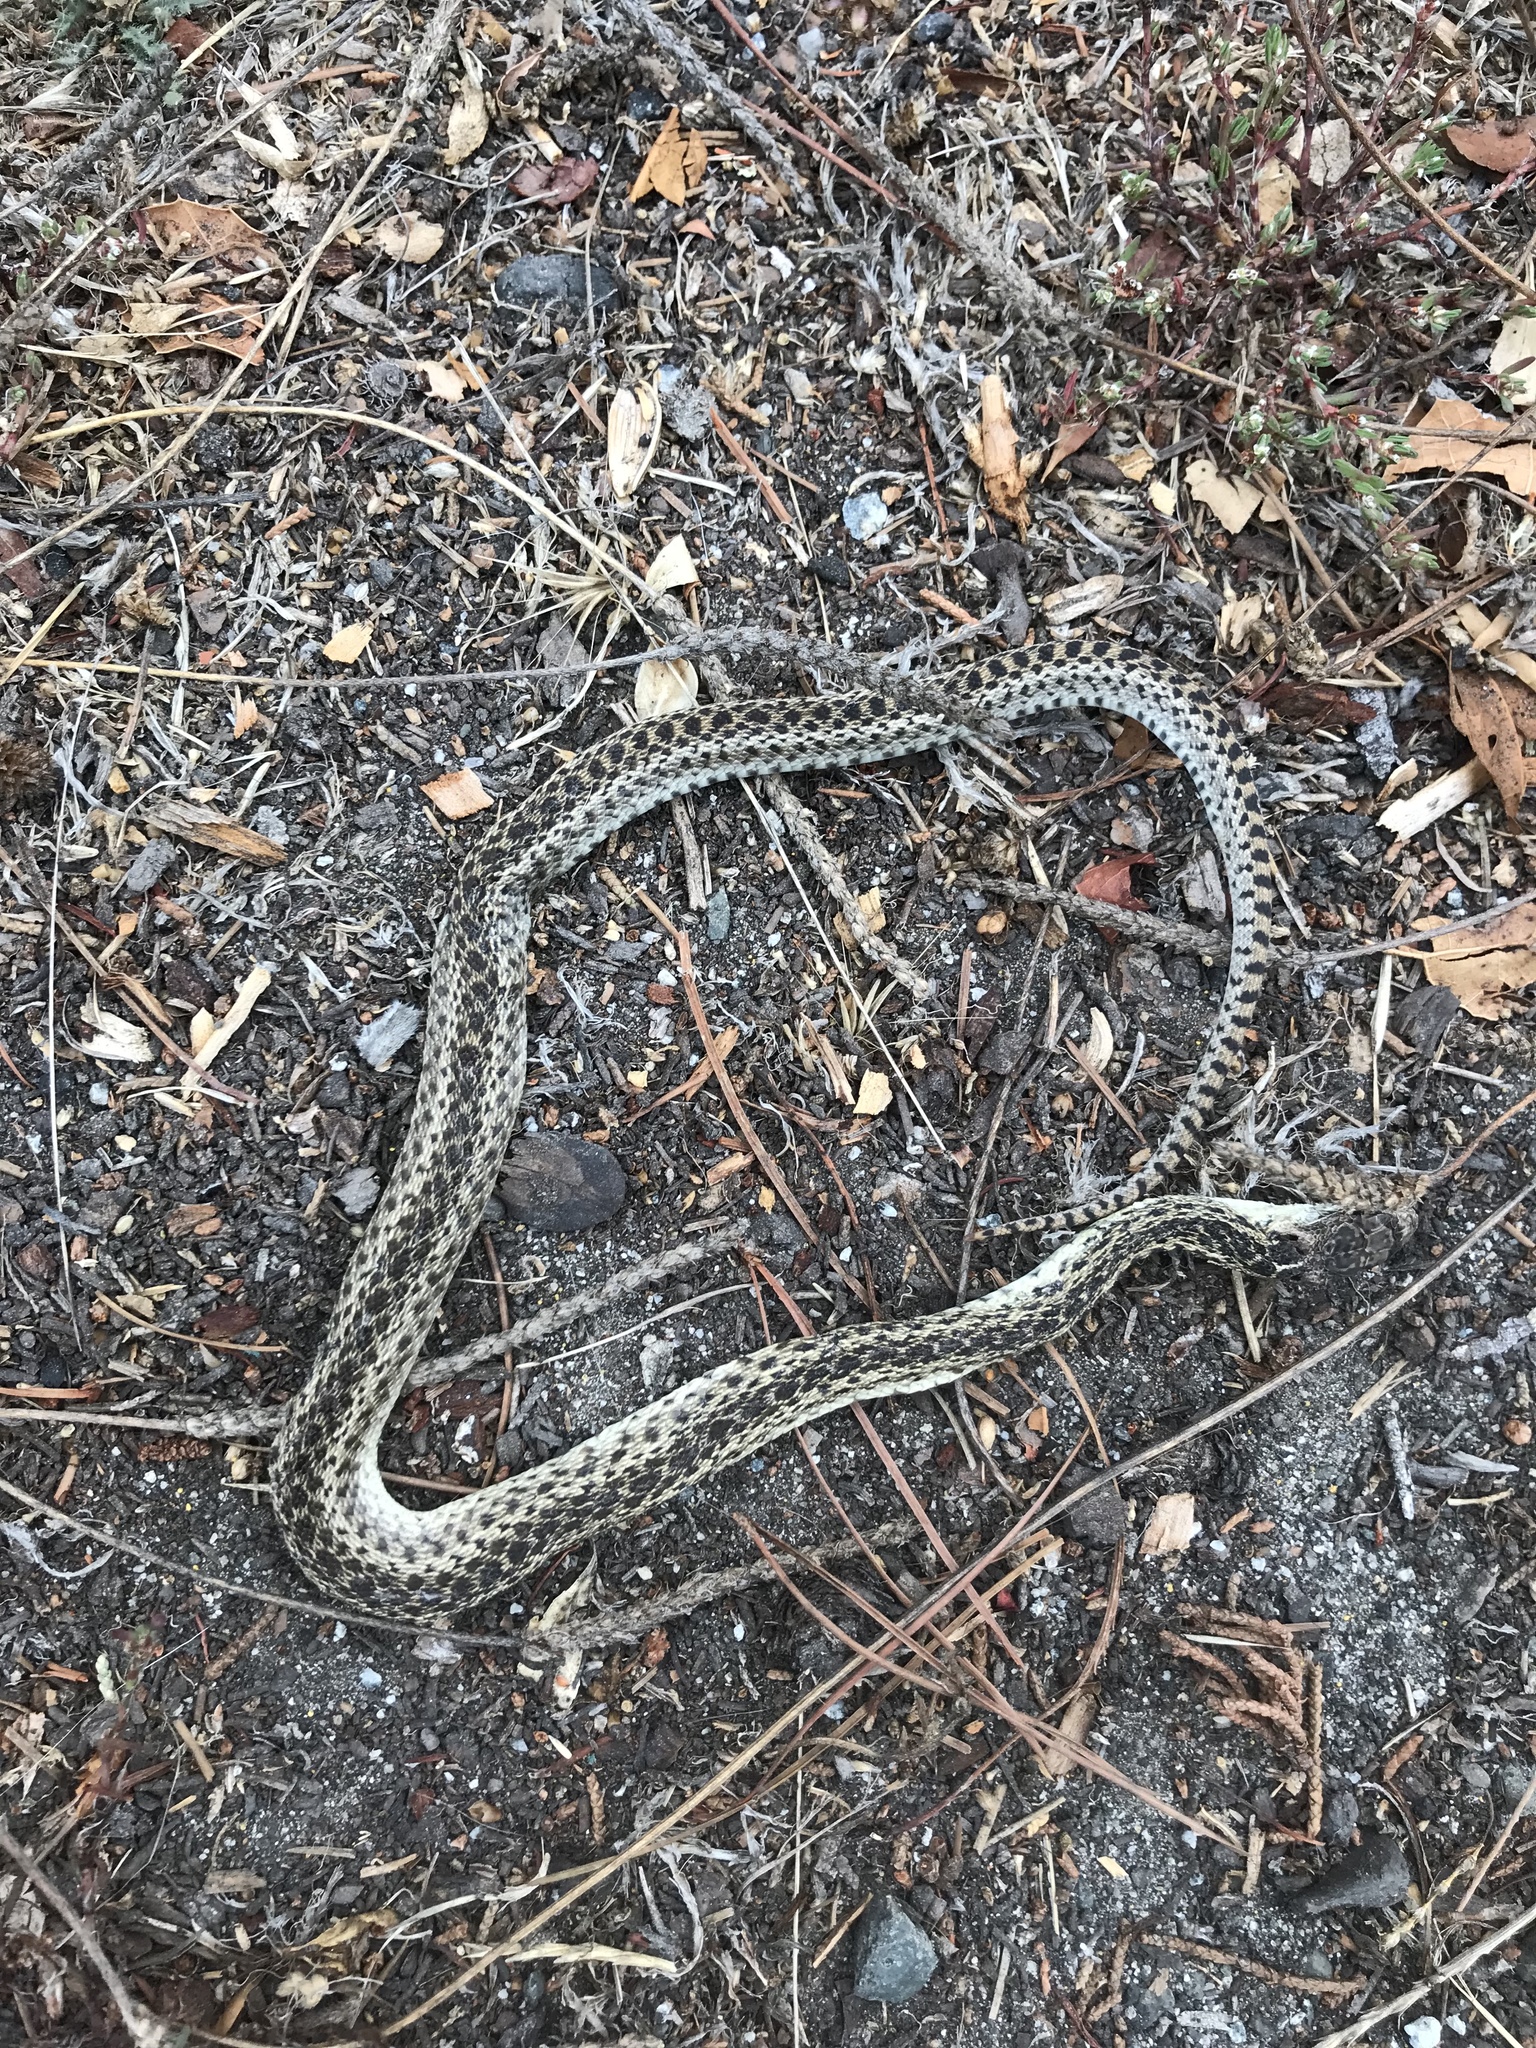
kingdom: Animalia
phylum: Chordata
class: Squamata
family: Colubridae
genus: Pituophis
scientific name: Pituophis catenifer
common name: Gopher snake
